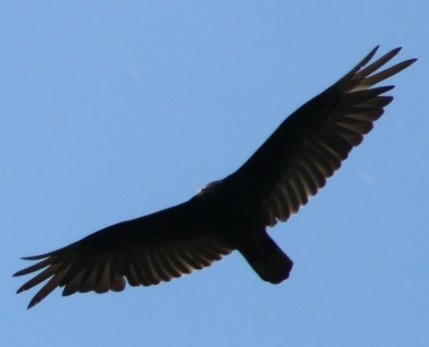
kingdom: Animalia
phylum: Chordata
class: Aves
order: Accipitriformes
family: Cathartidae
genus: Cathartes
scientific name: Cathartes aura
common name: Turkey vulture
